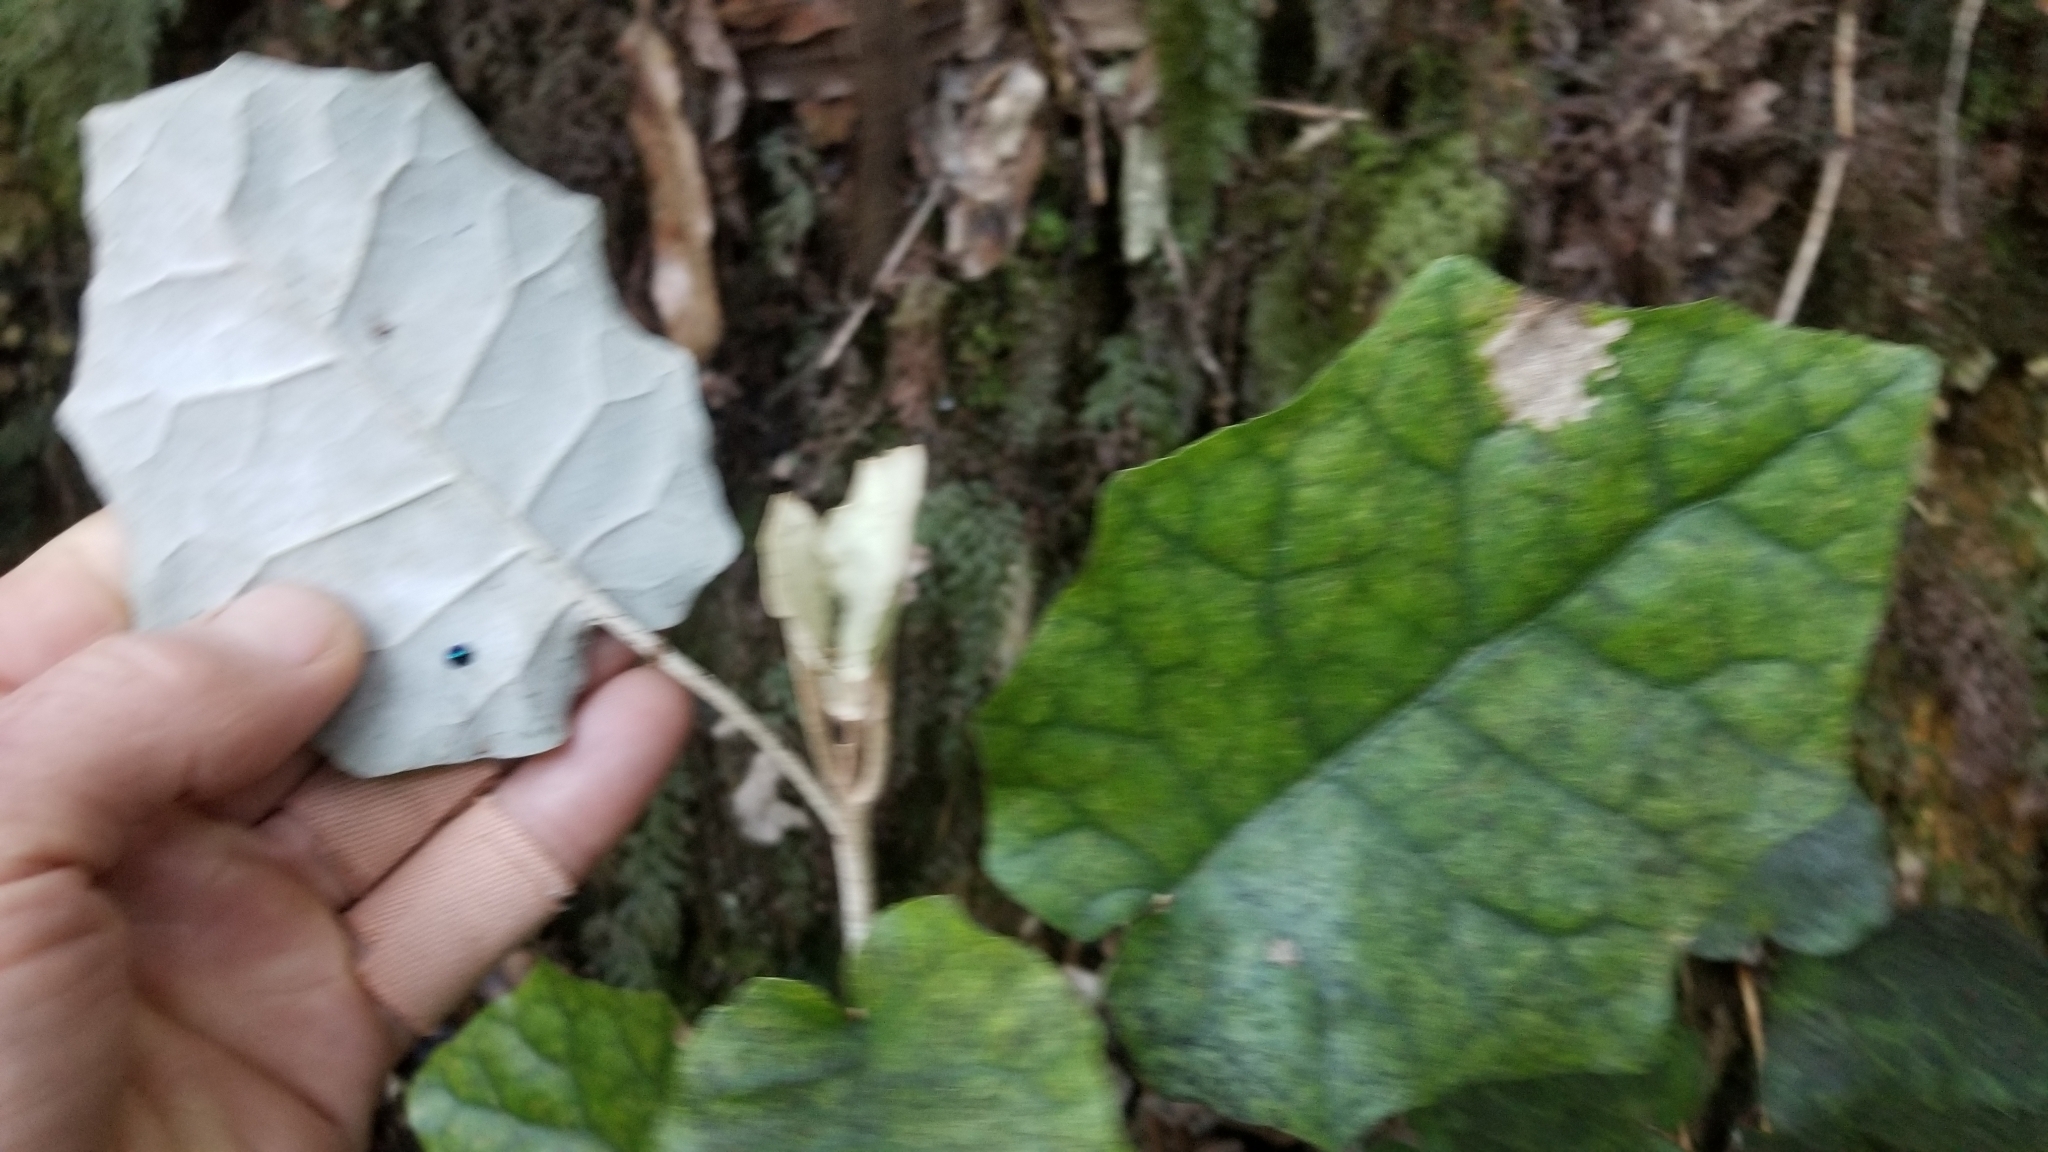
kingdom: Plantae
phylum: Tracheophyta
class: Magnoliopsida
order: Asterales
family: Asteraceae
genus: Brachyglottis
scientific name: Brachyglottis repanda
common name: Hedge ragwort
